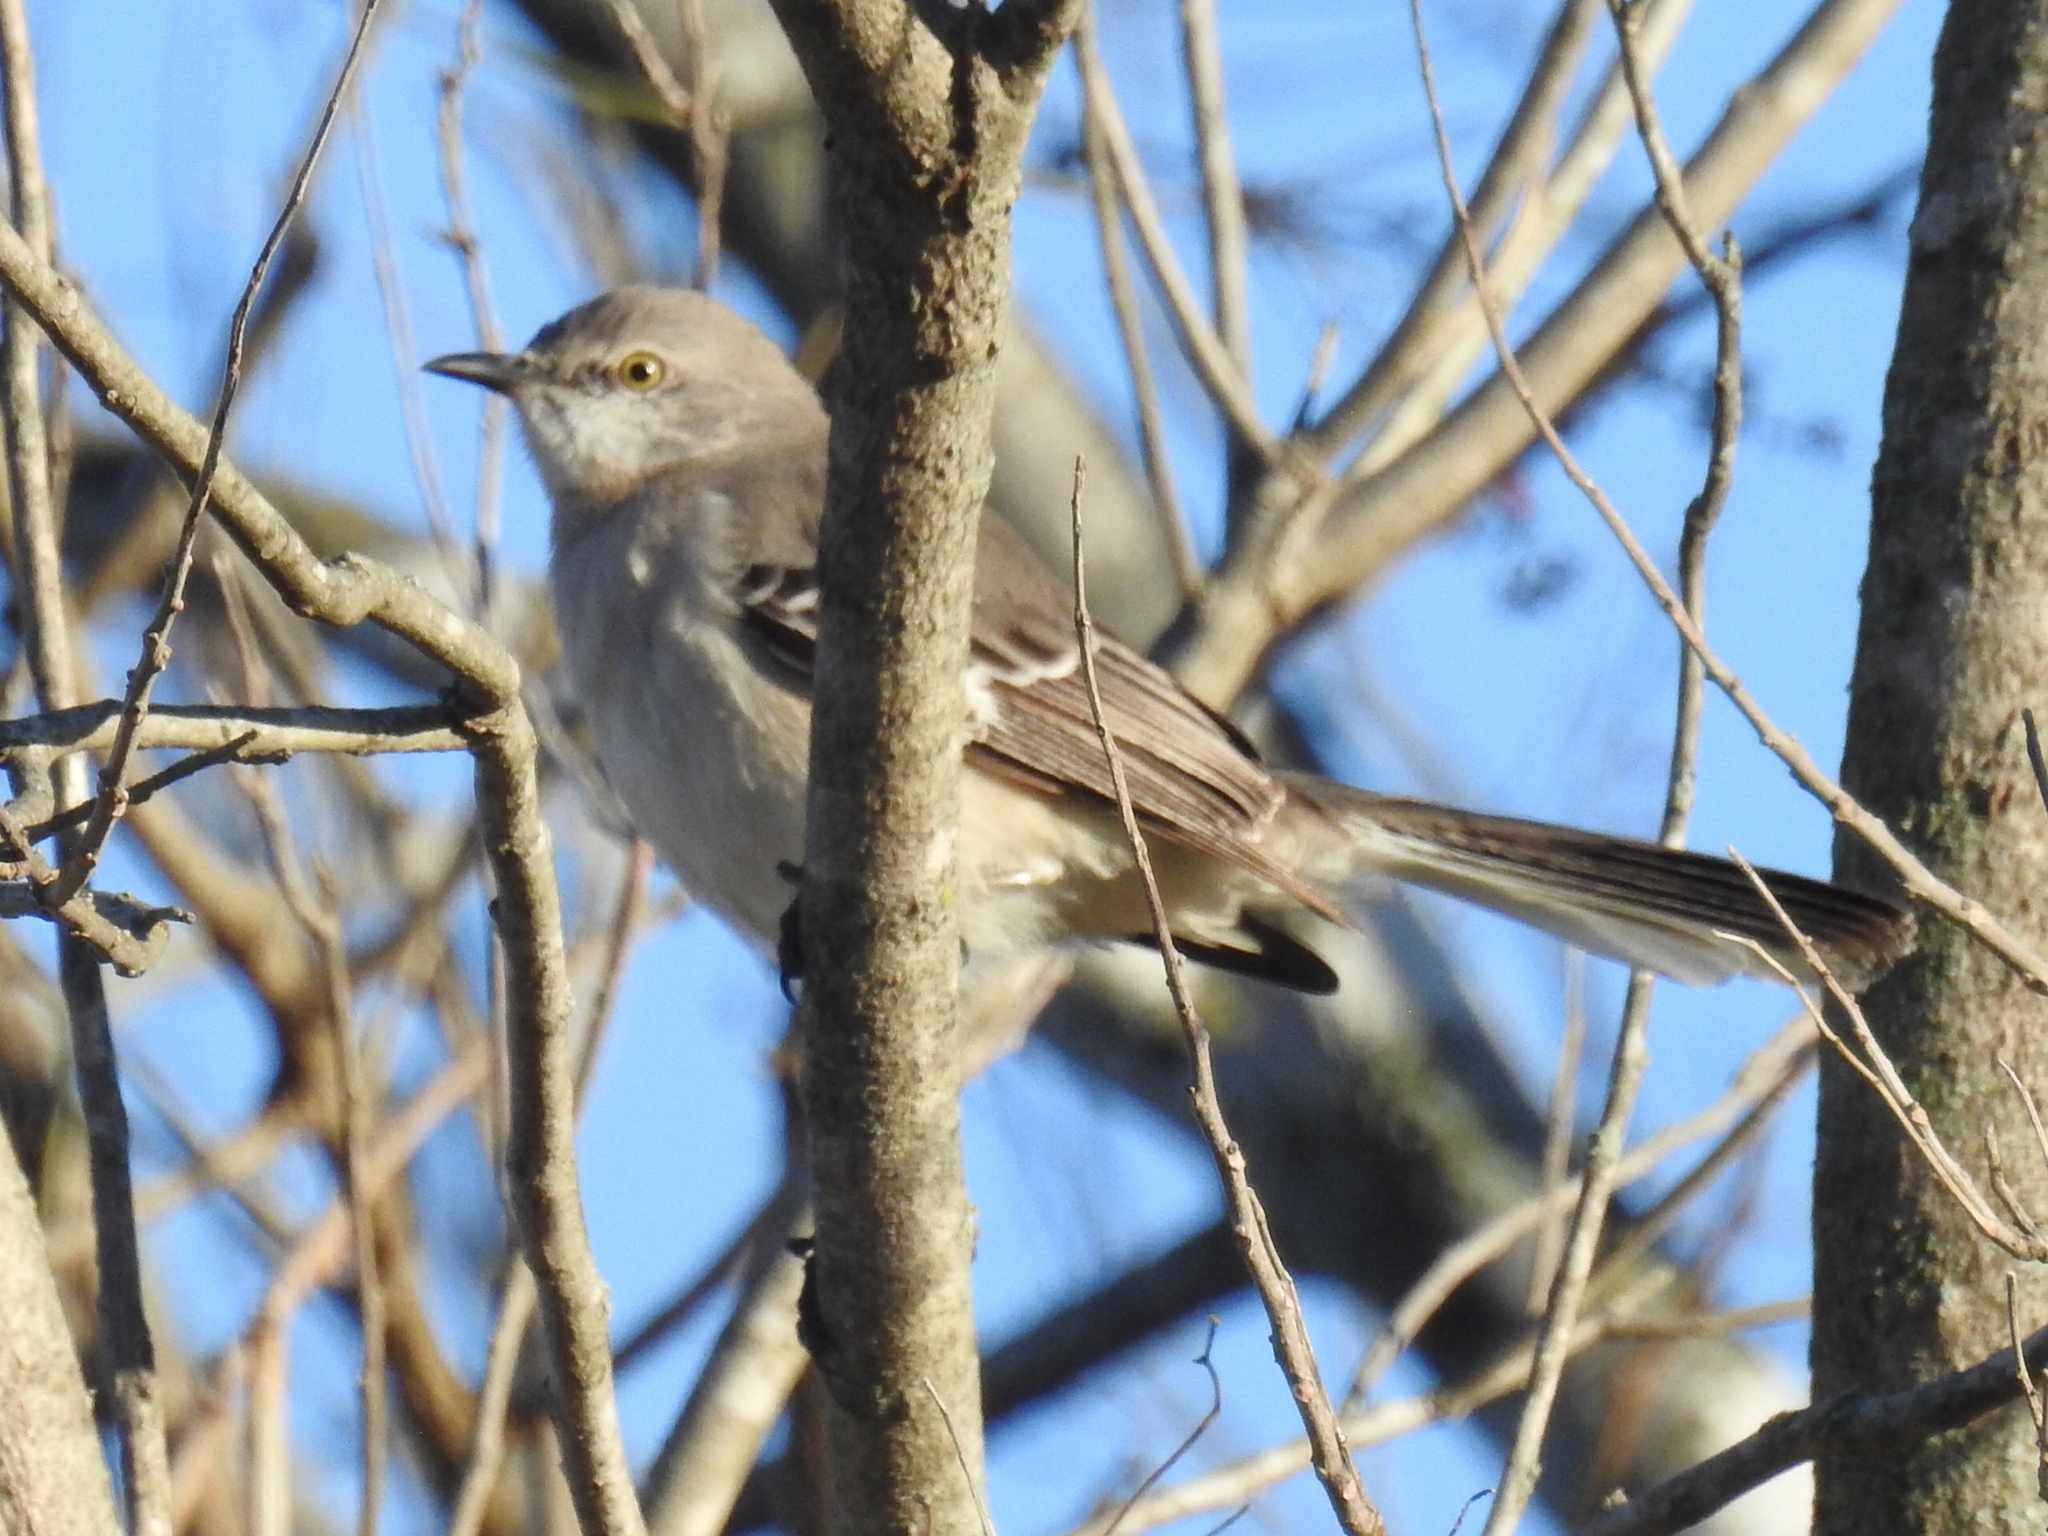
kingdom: Animalia
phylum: Chordata
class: Aves
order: Passeriformes
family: Mimidae
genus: Mimus
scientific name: Mimus polyglottos
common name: Northern mockingbird
